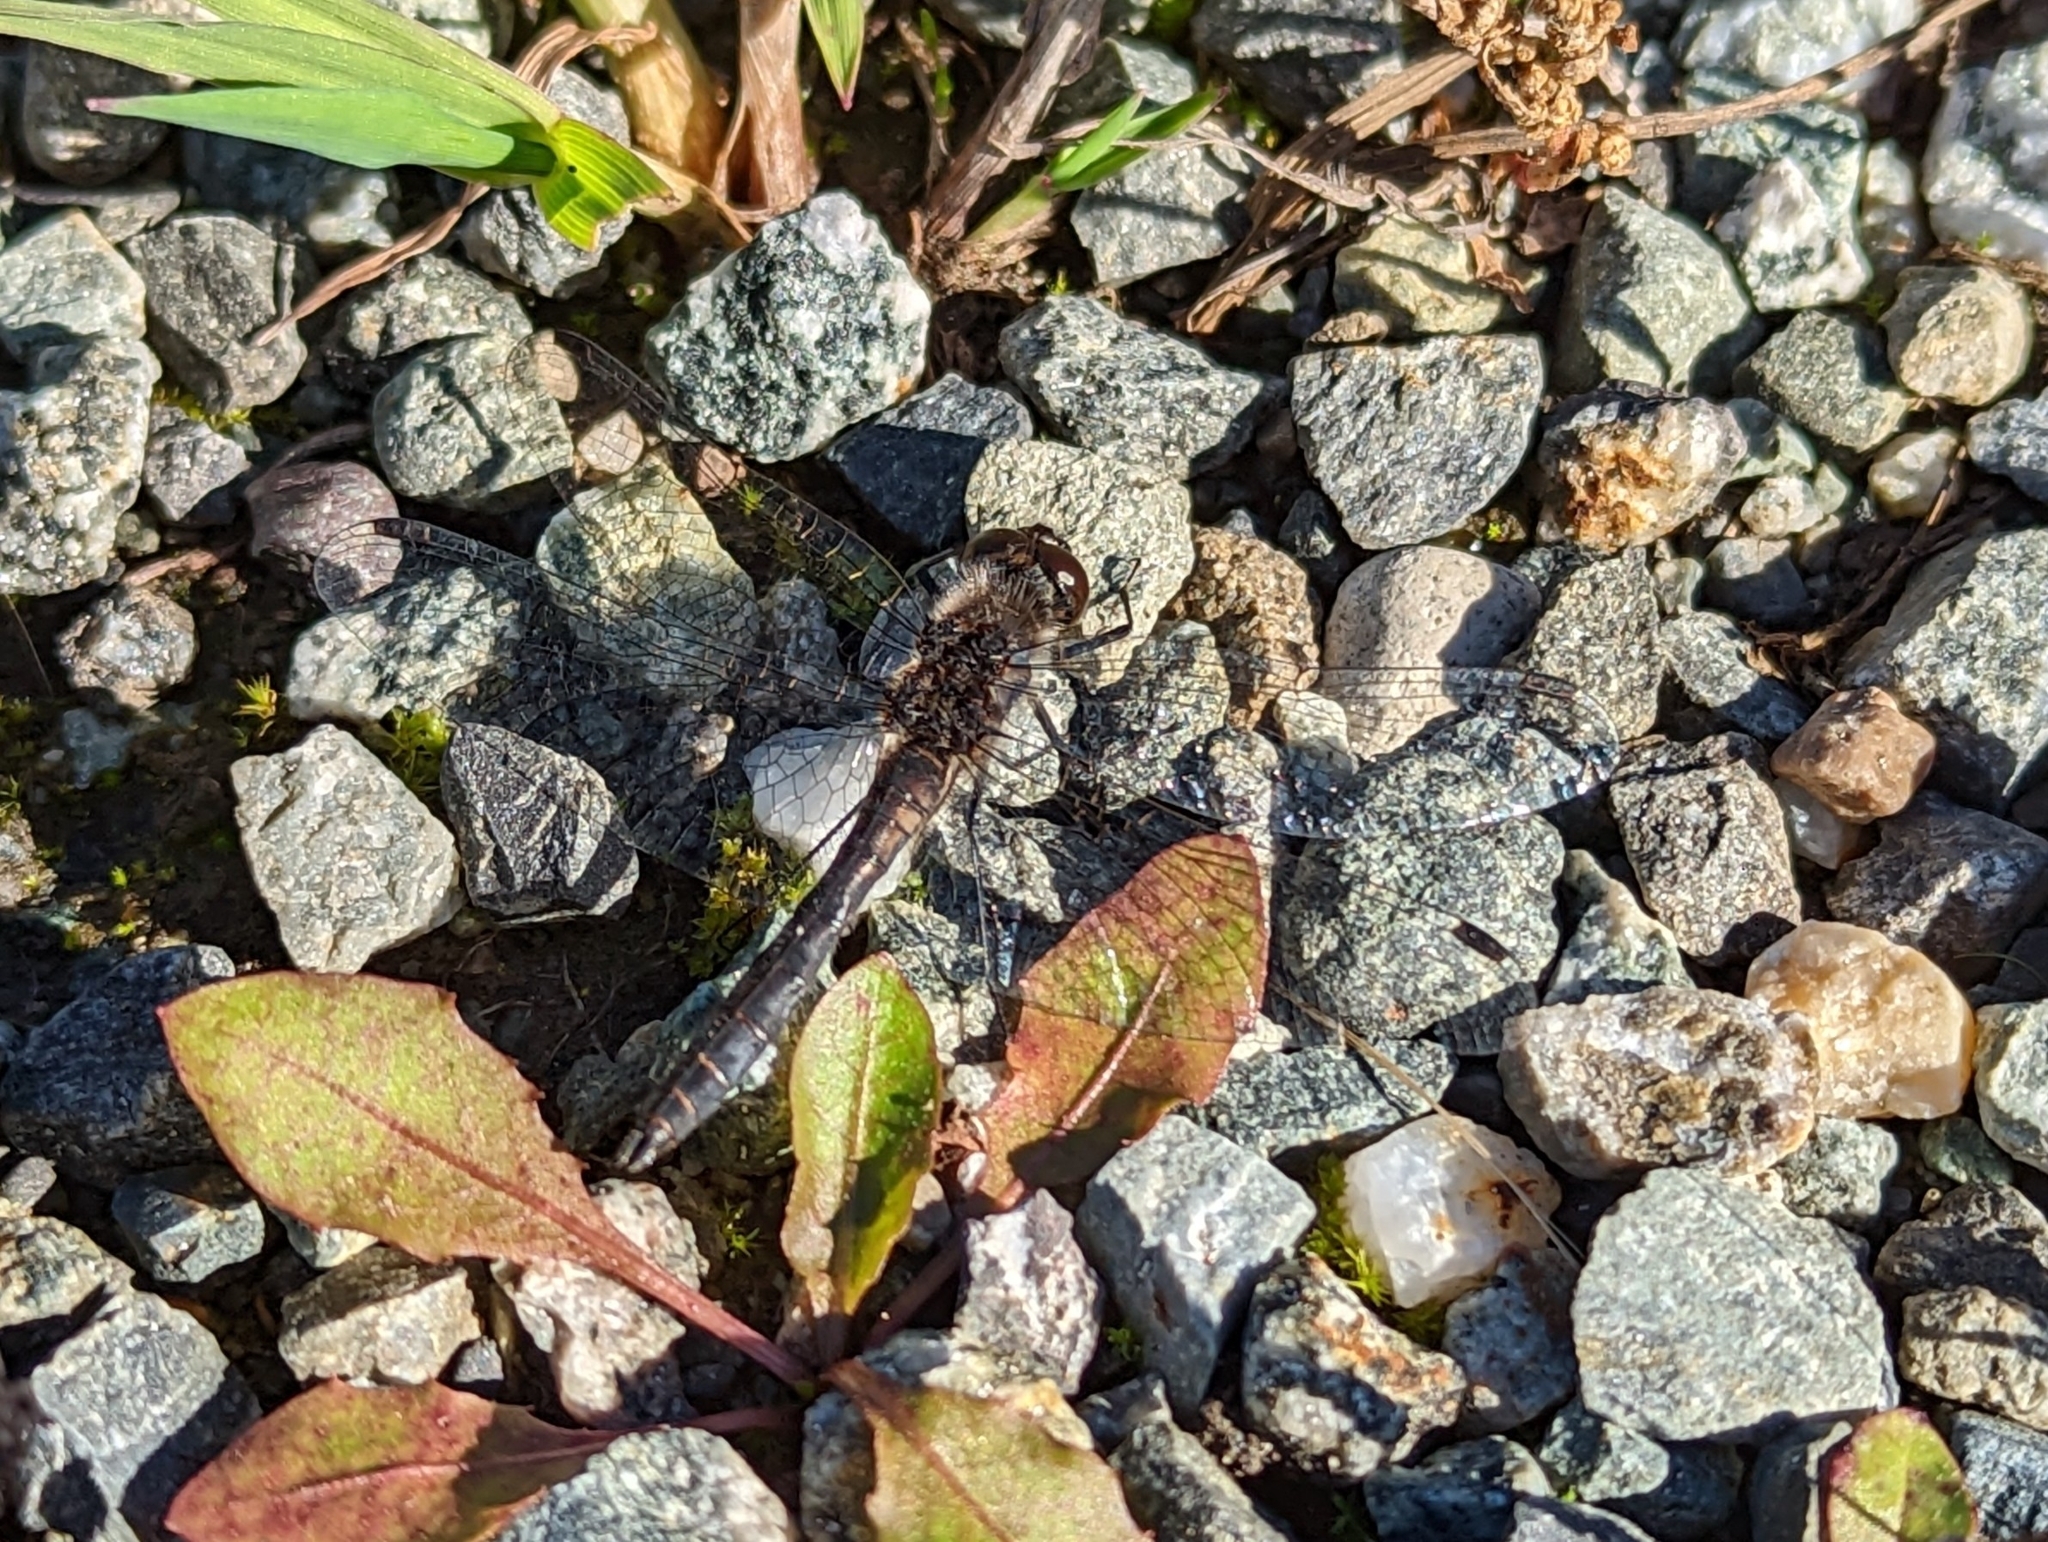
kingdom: Animalia
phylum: Arthropoda
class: Insecta
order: Odonata
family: Libellulidae
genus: Sympetrum
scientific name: Sympetrum danae
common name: Black darter
